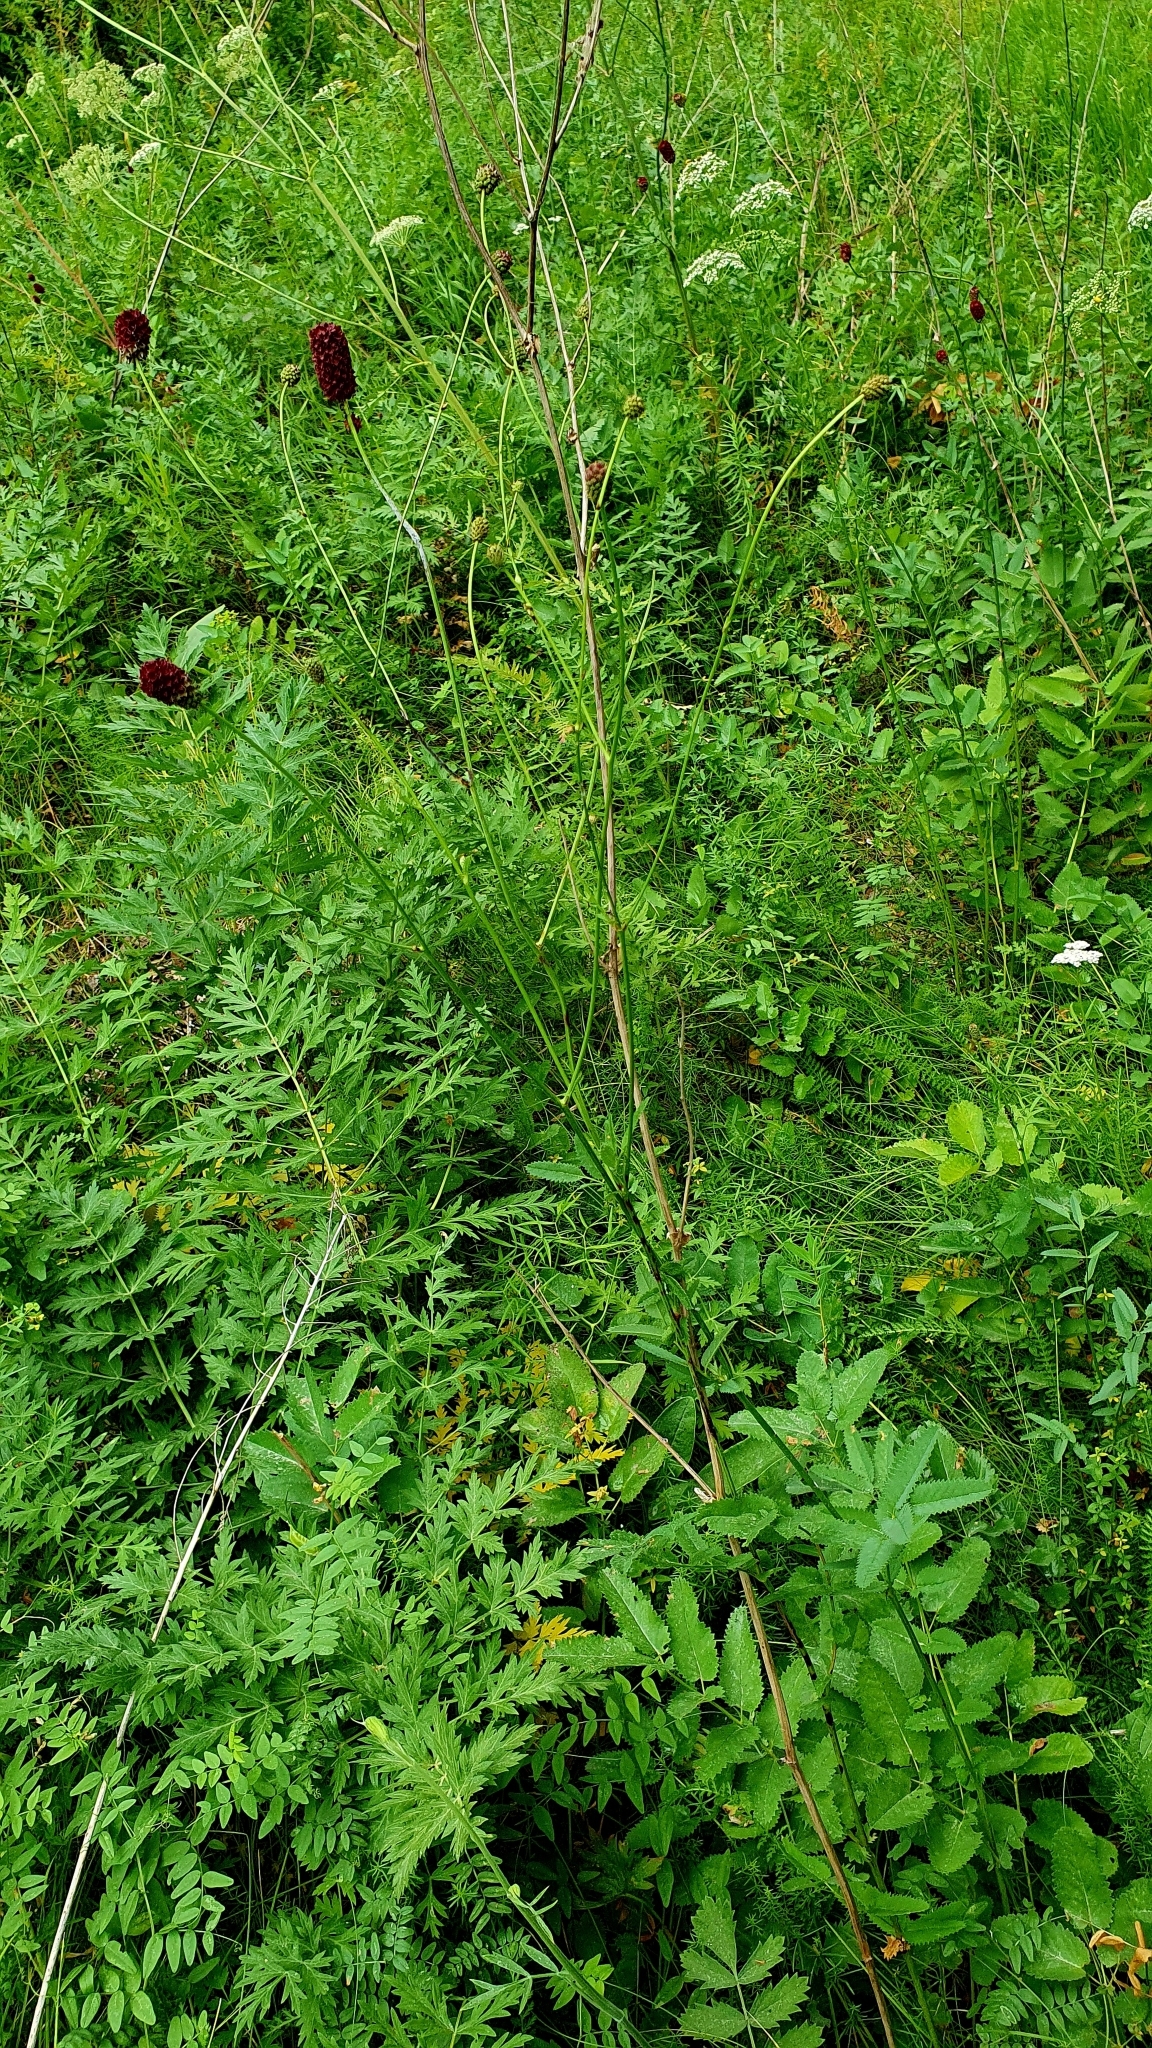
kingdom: Plantae
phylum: Tracheophyta
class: Magnoliopsida
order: Rosales
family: Rosaceae
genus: Sanguisorba
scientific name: Sanguisorba officinalis
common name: Great burnet
